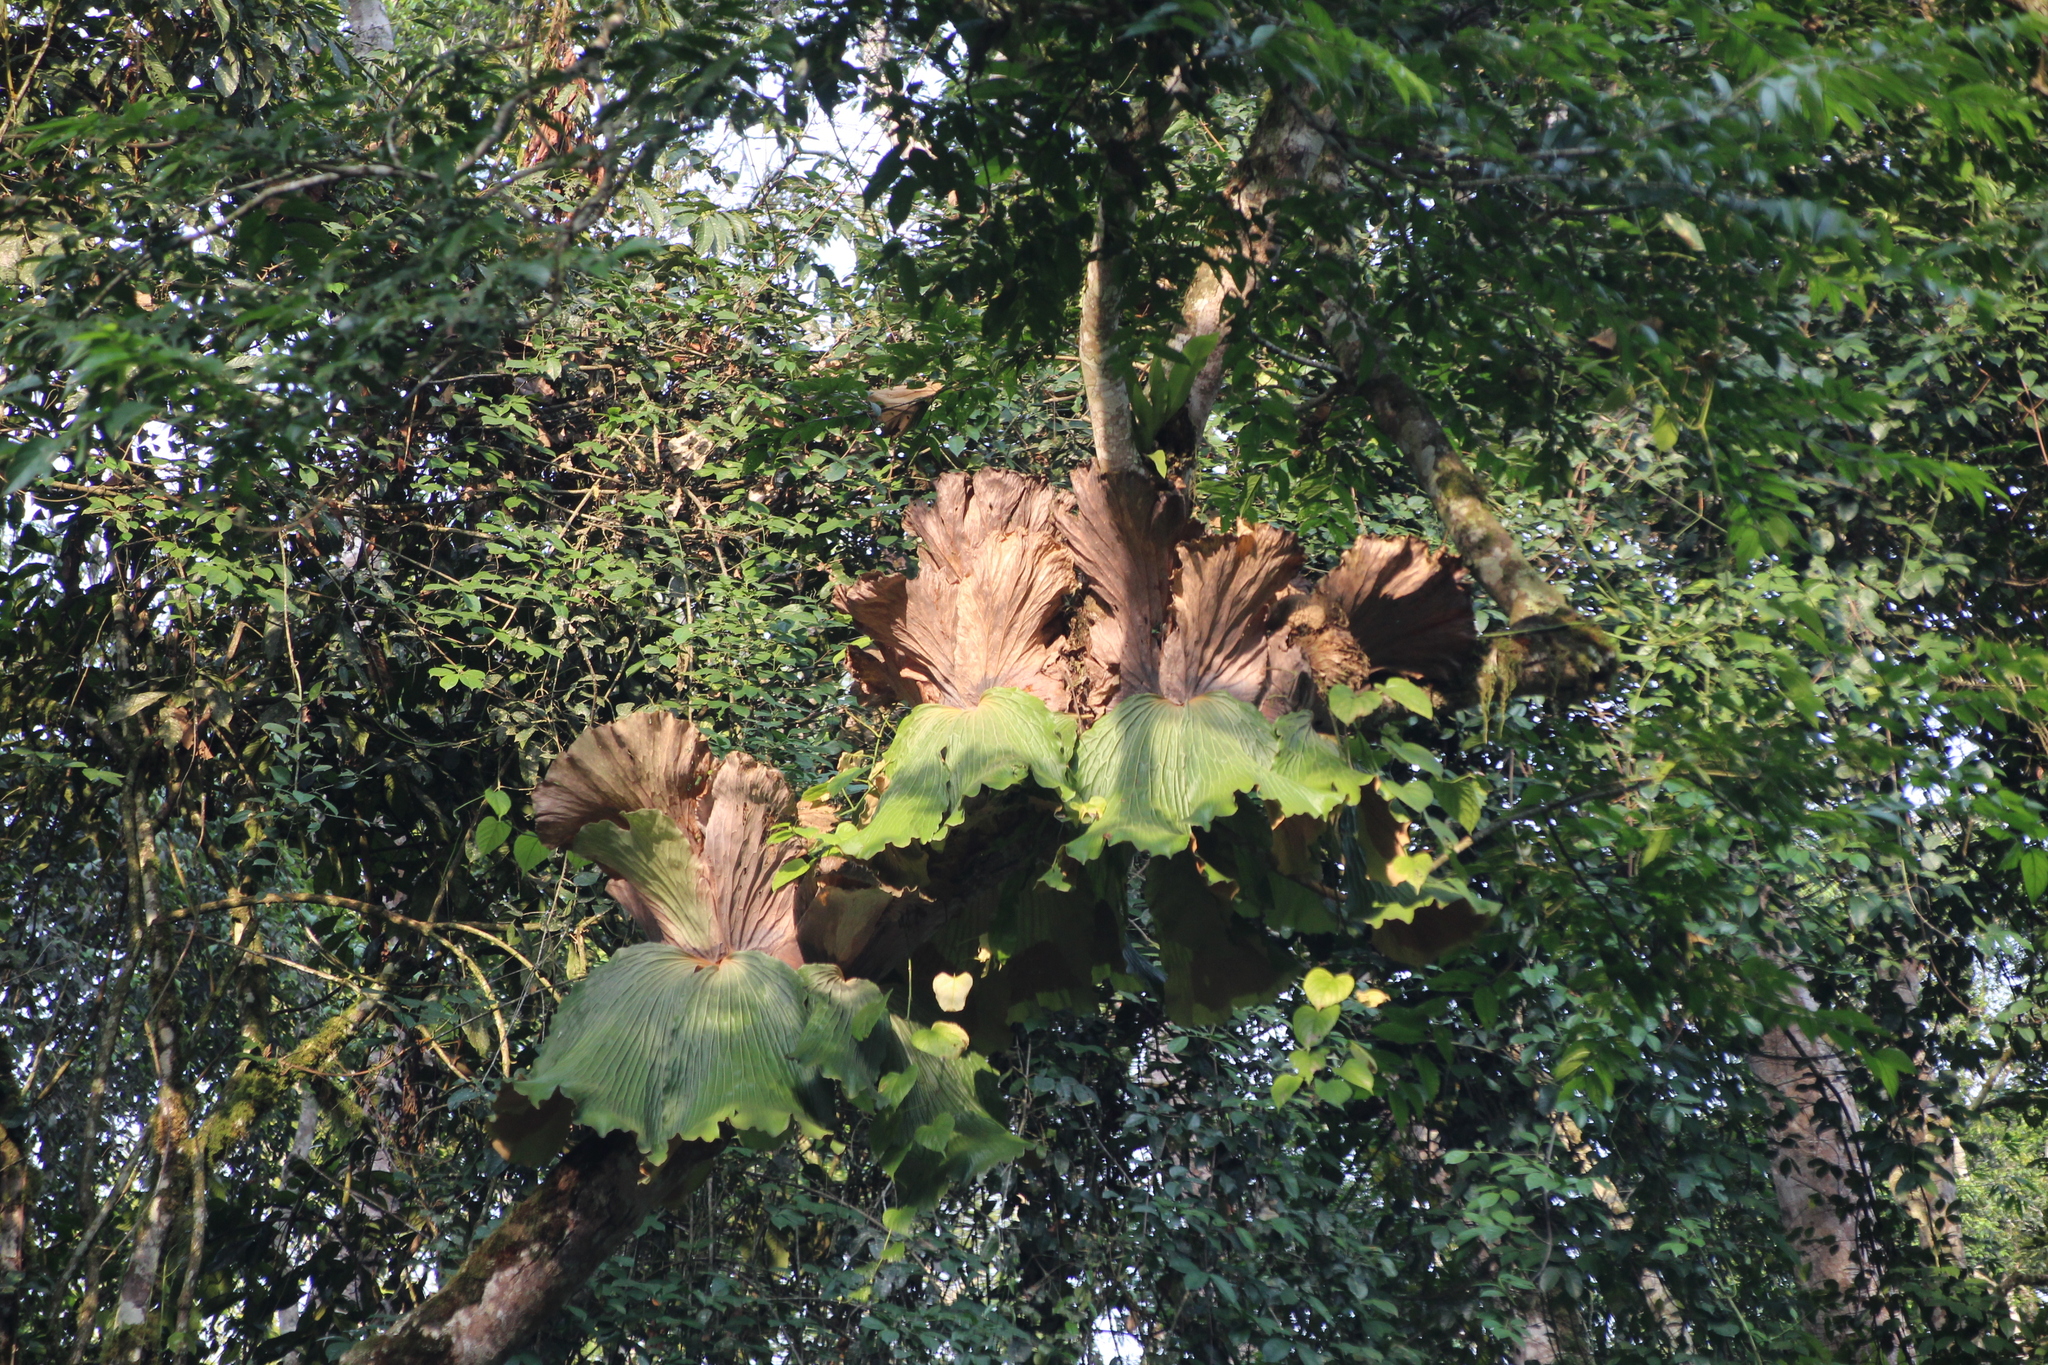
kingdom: Plantae
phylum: Tracheophyta
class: Polypodiopsida
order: Polypodiales
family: Polypodiaceae
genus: Platycerium
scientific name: Platycerium elephantotis
